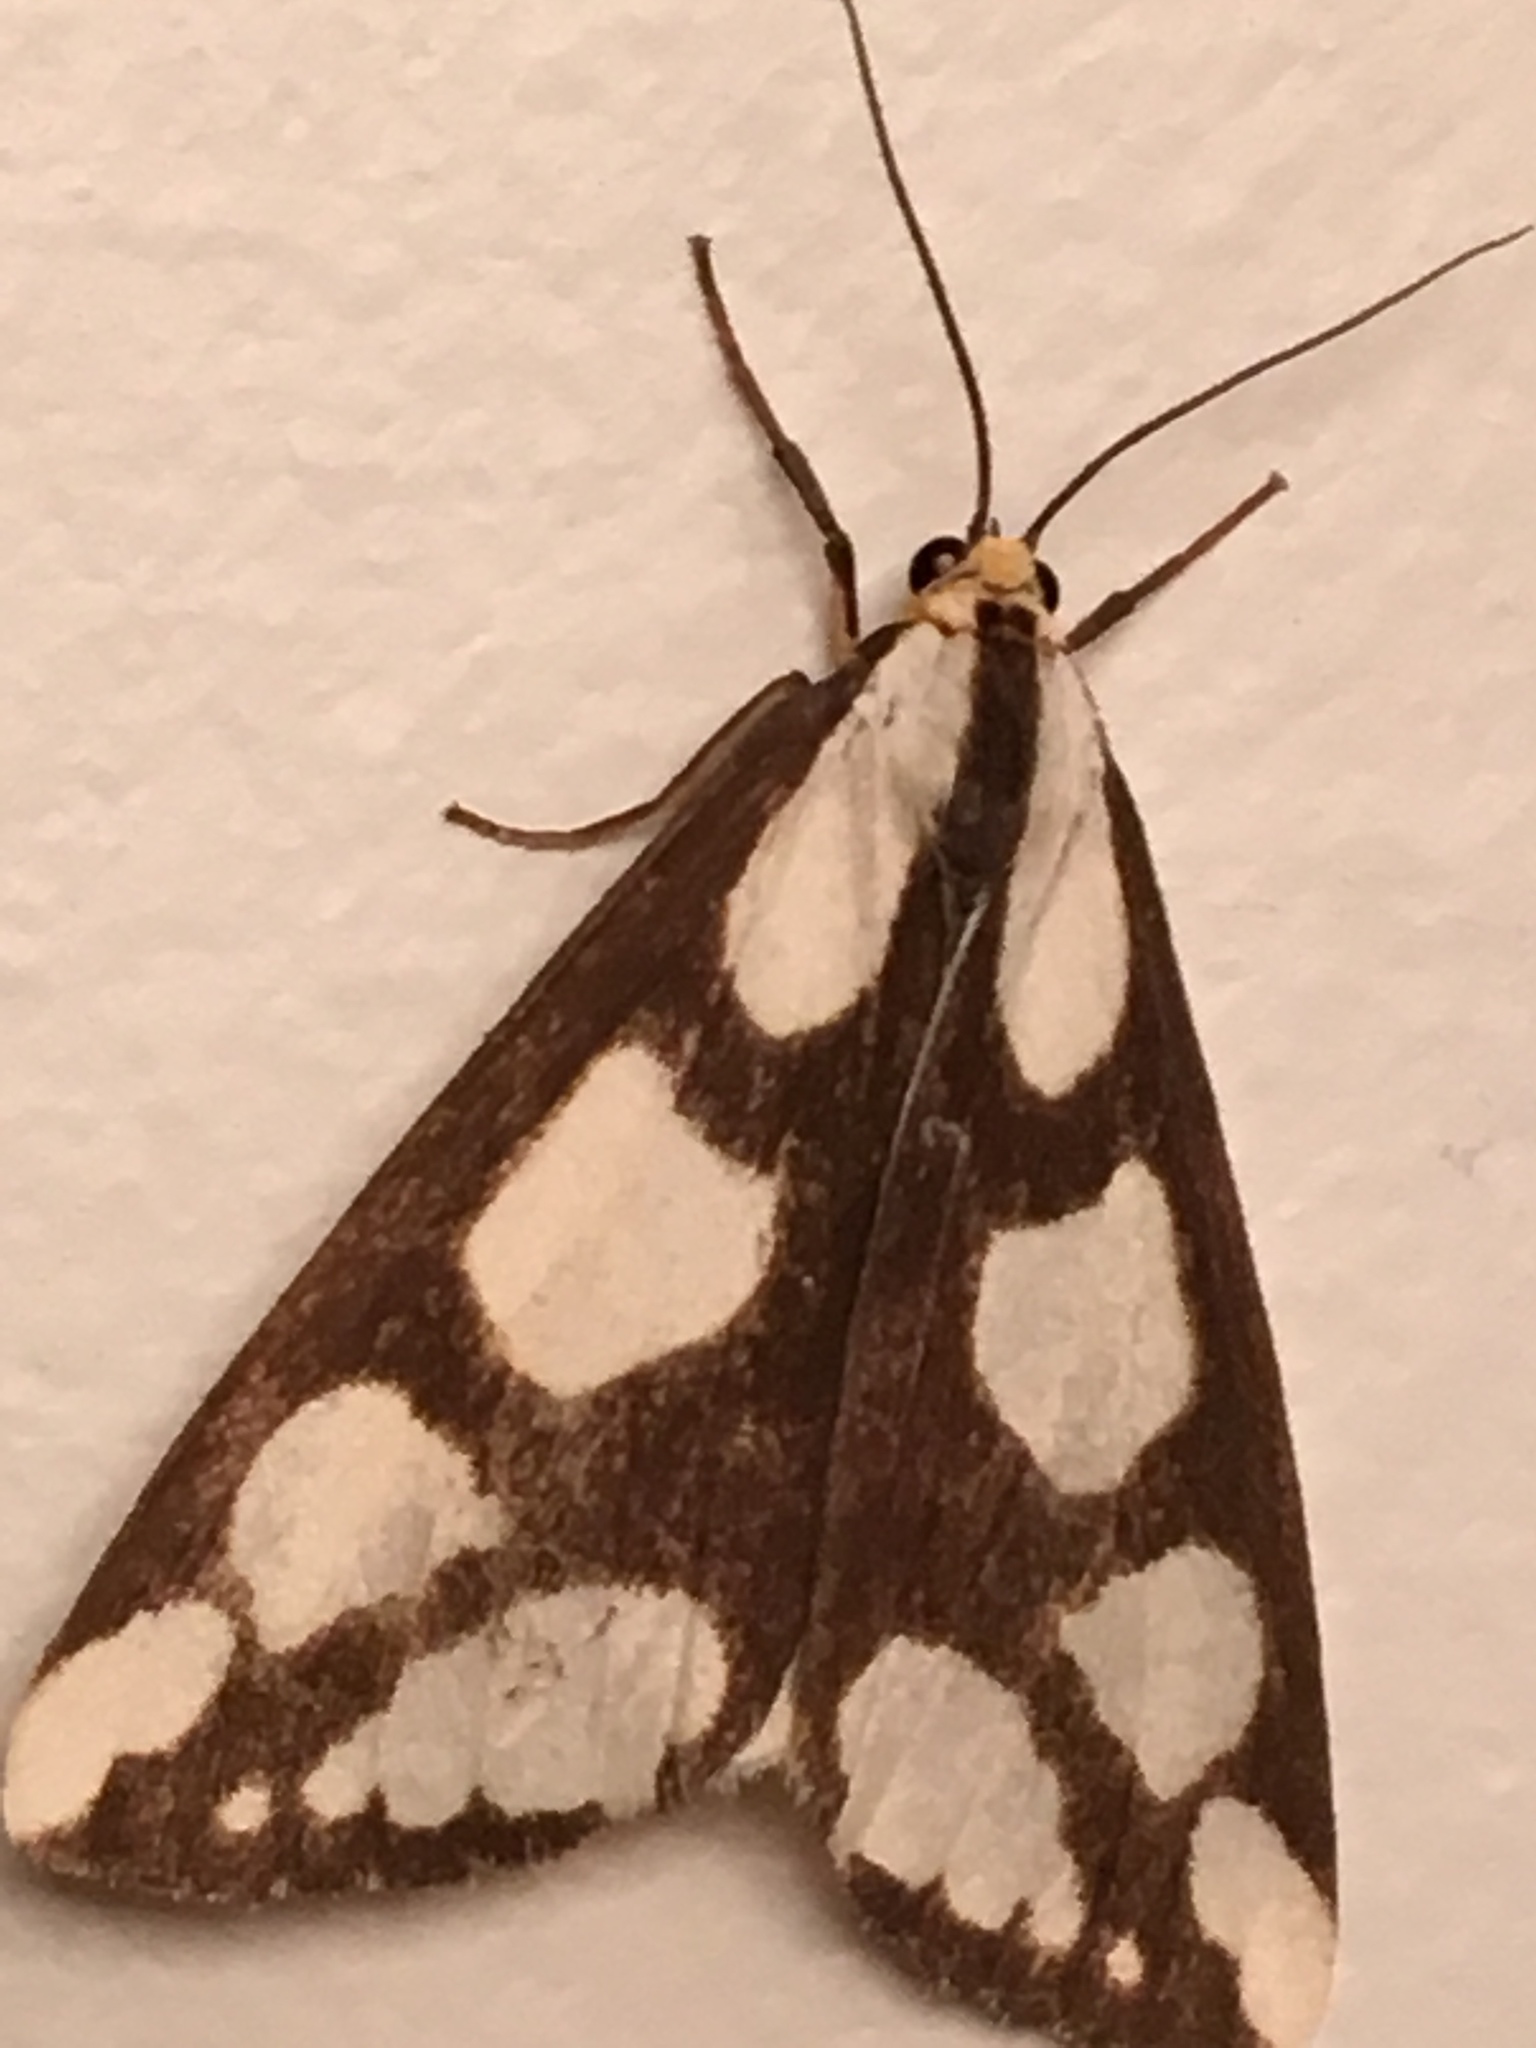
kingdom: Animalia
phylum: Arthropoda
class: Insecta
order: Lepidoptera
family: Erebidae
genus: Haploa
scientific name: Haploa lecontei
